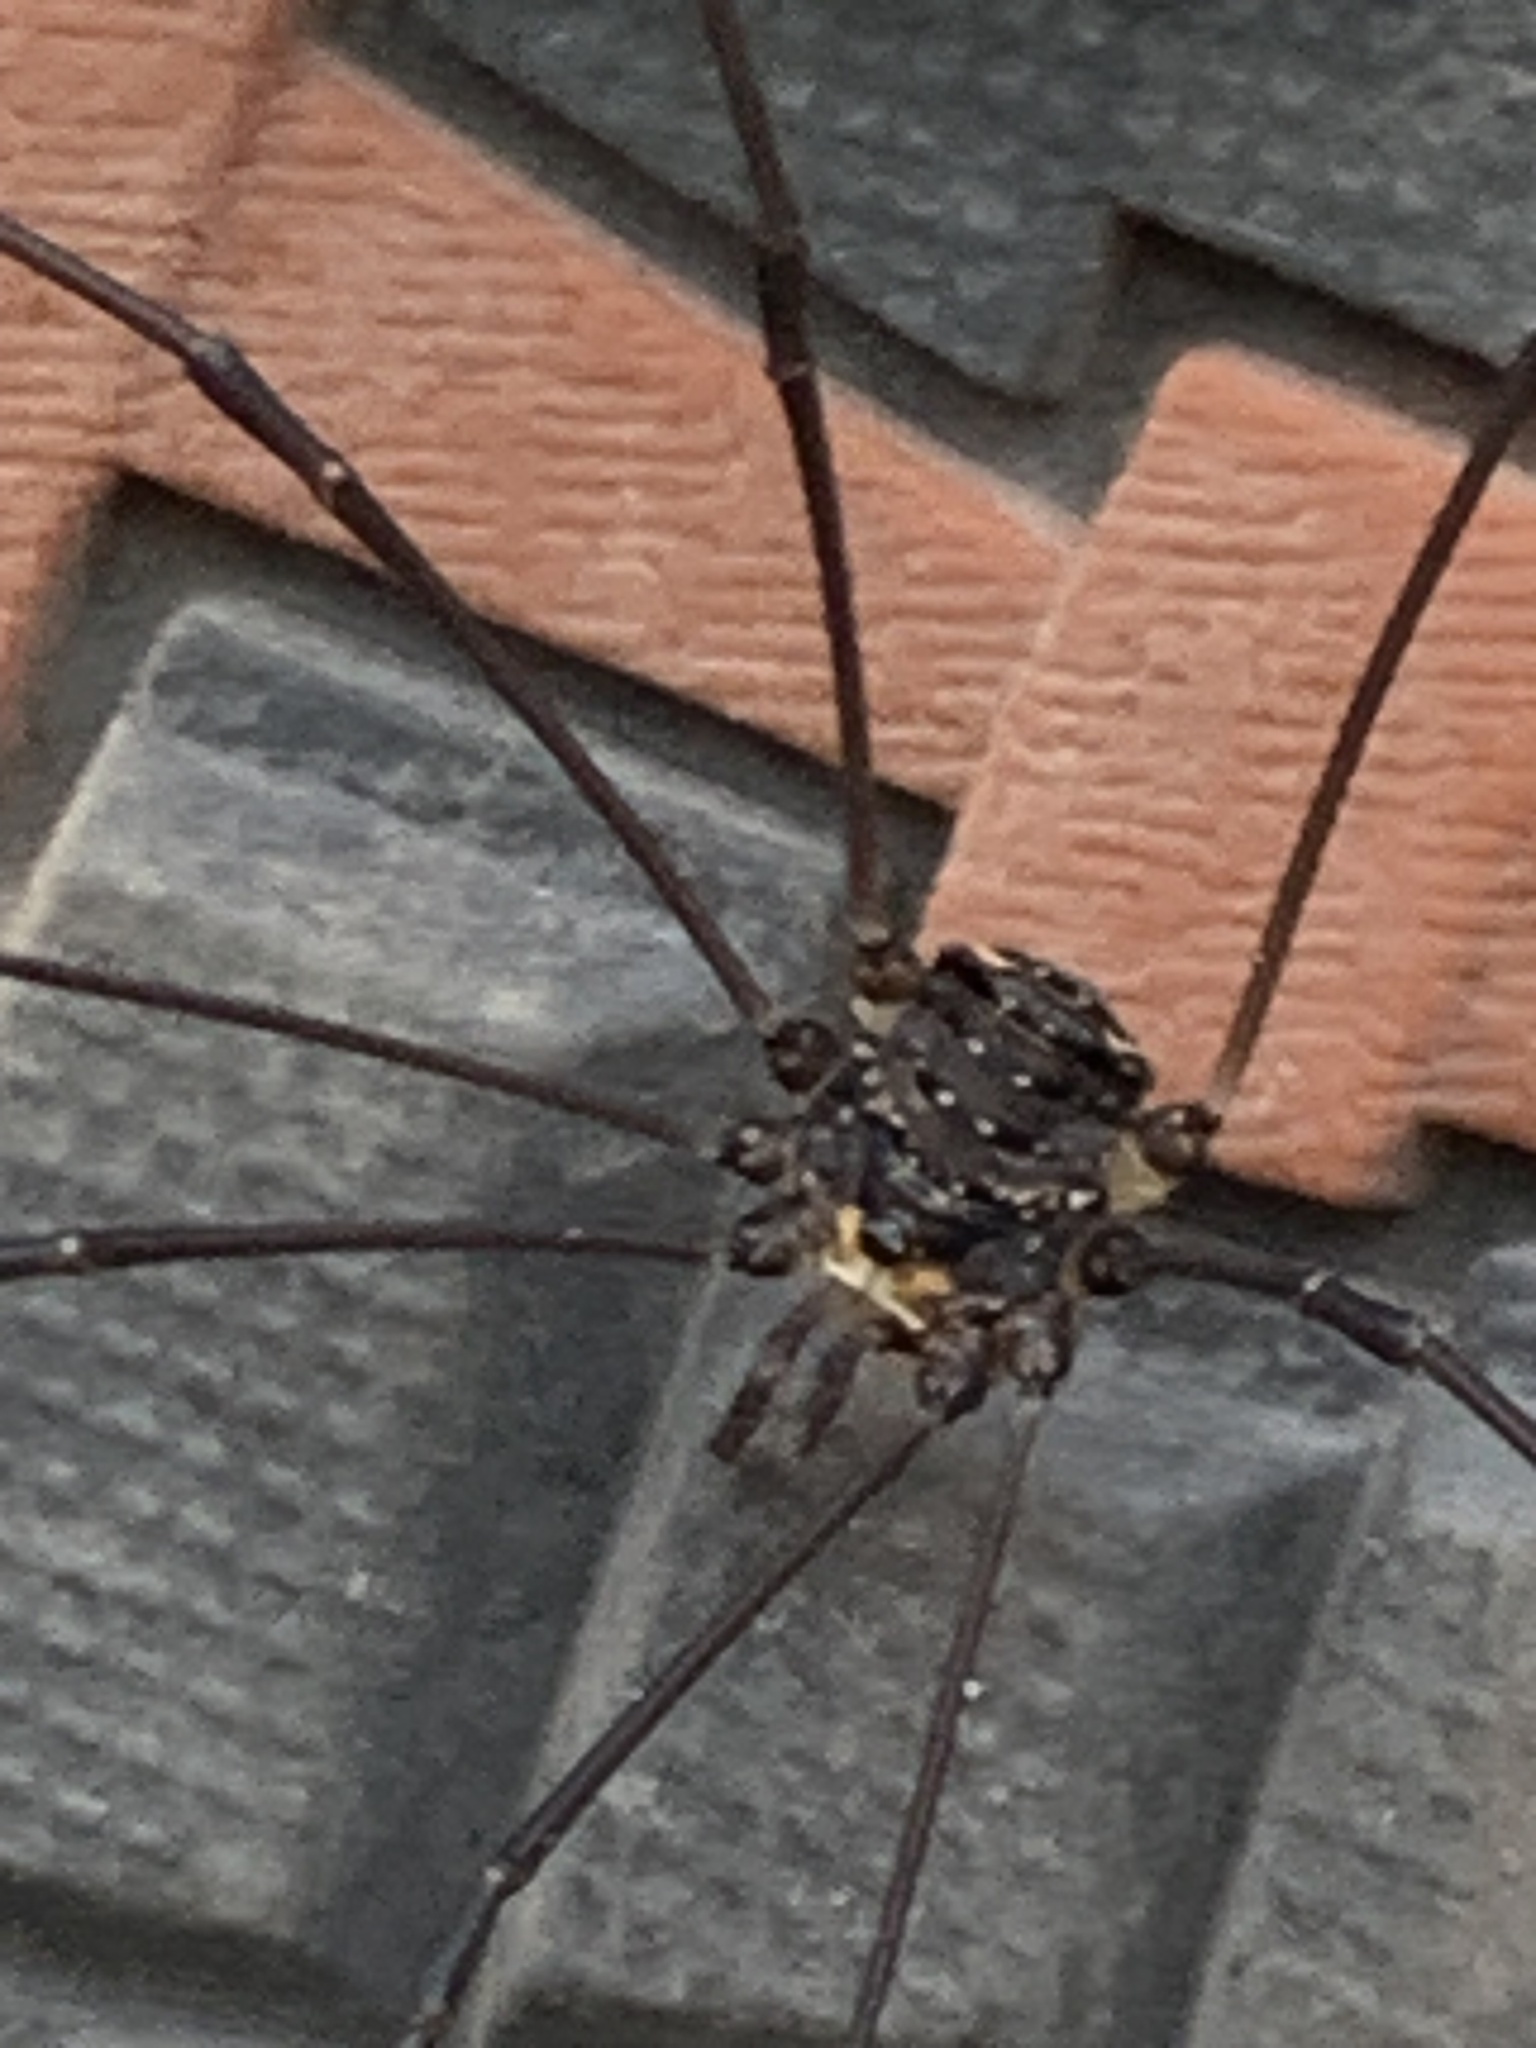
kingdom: Animalia
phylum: Arthropoda
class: Arachnida
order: Opiliones
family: Sclerosomatidae
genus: Leiobunum
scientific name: Leiobunum exilipes
